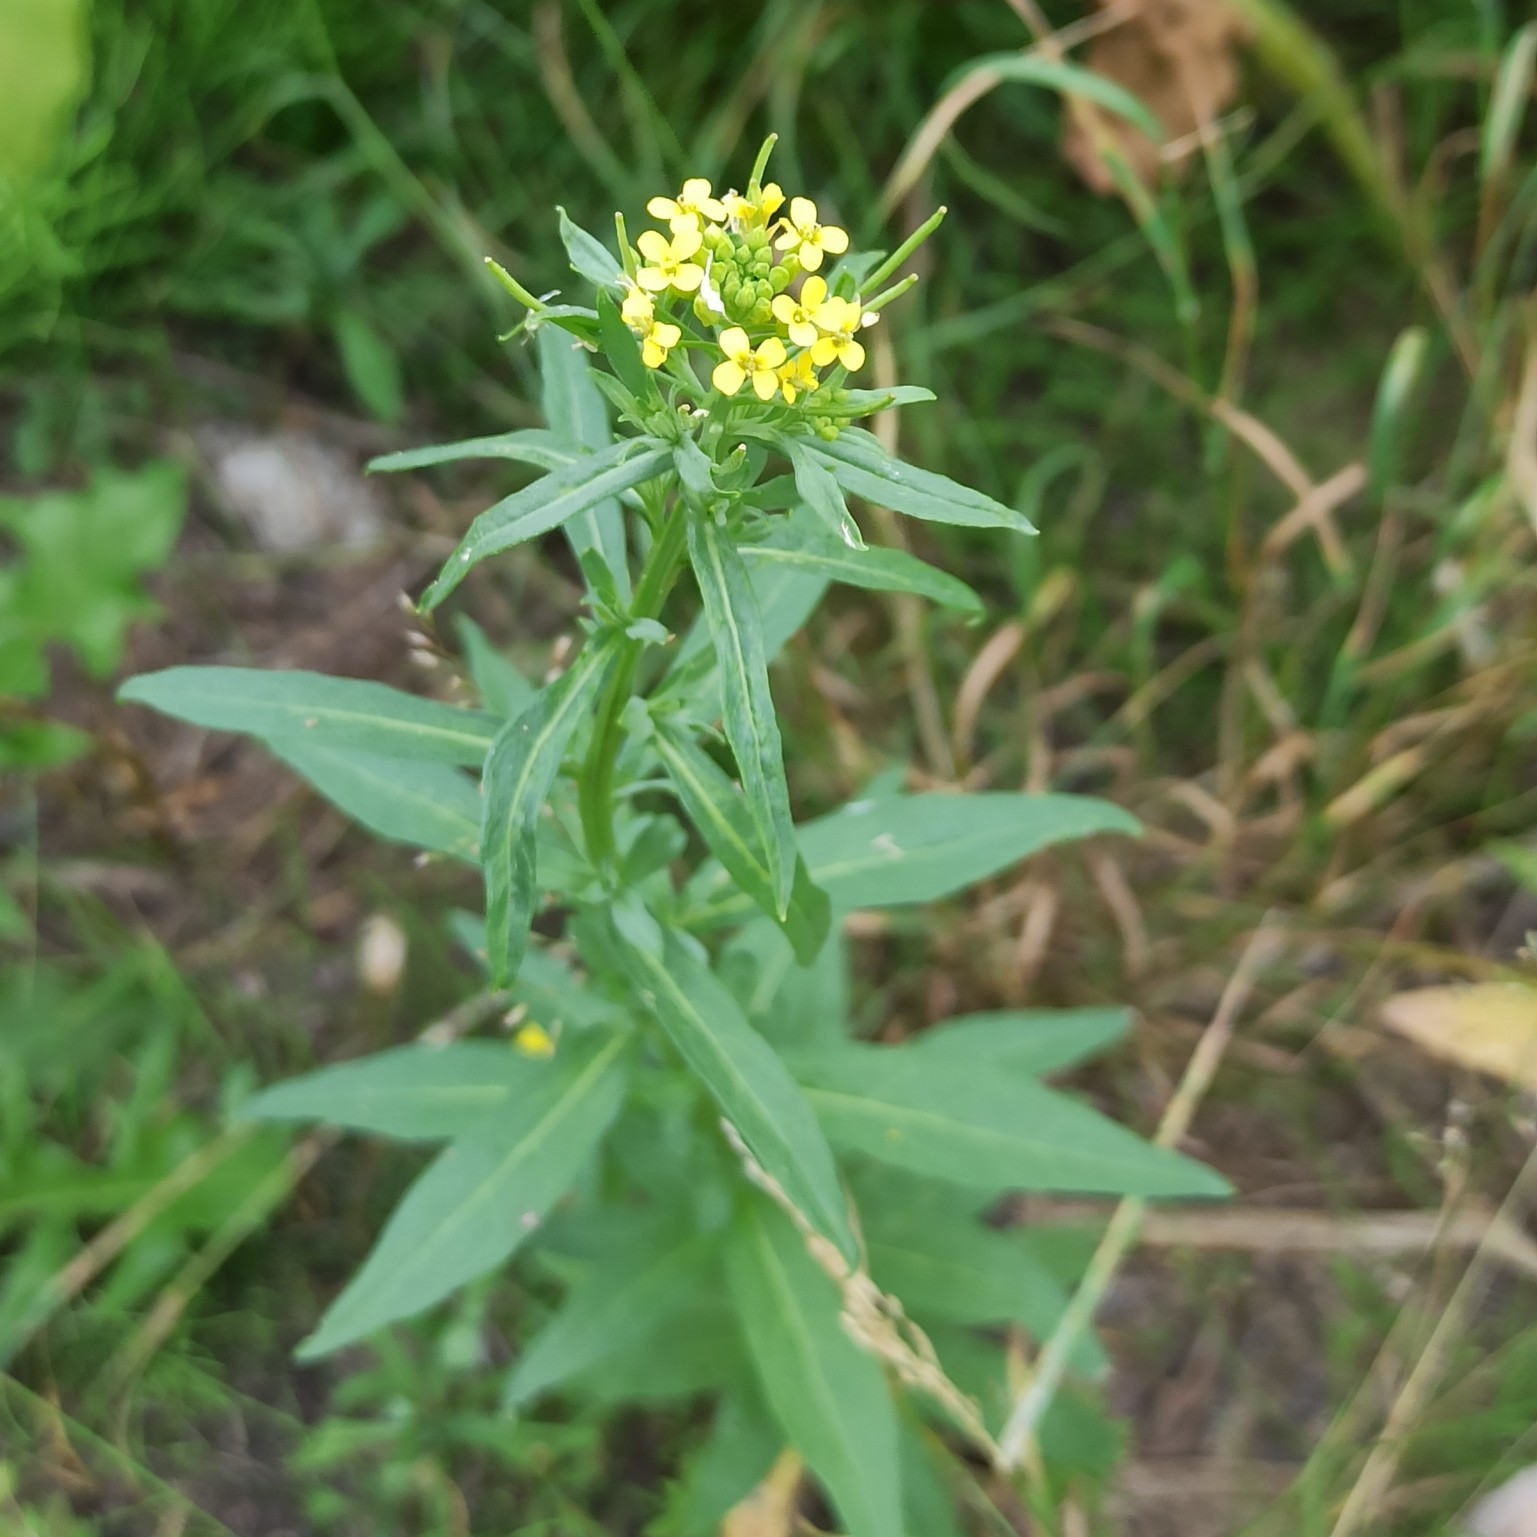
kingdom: Plantae
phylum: Tracheophyta
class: Magnoliopsida
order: Brassicales
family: Brassicaceae
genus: Erysimum
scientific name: Erysimum cheiranthoides
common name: Treacle mustard
